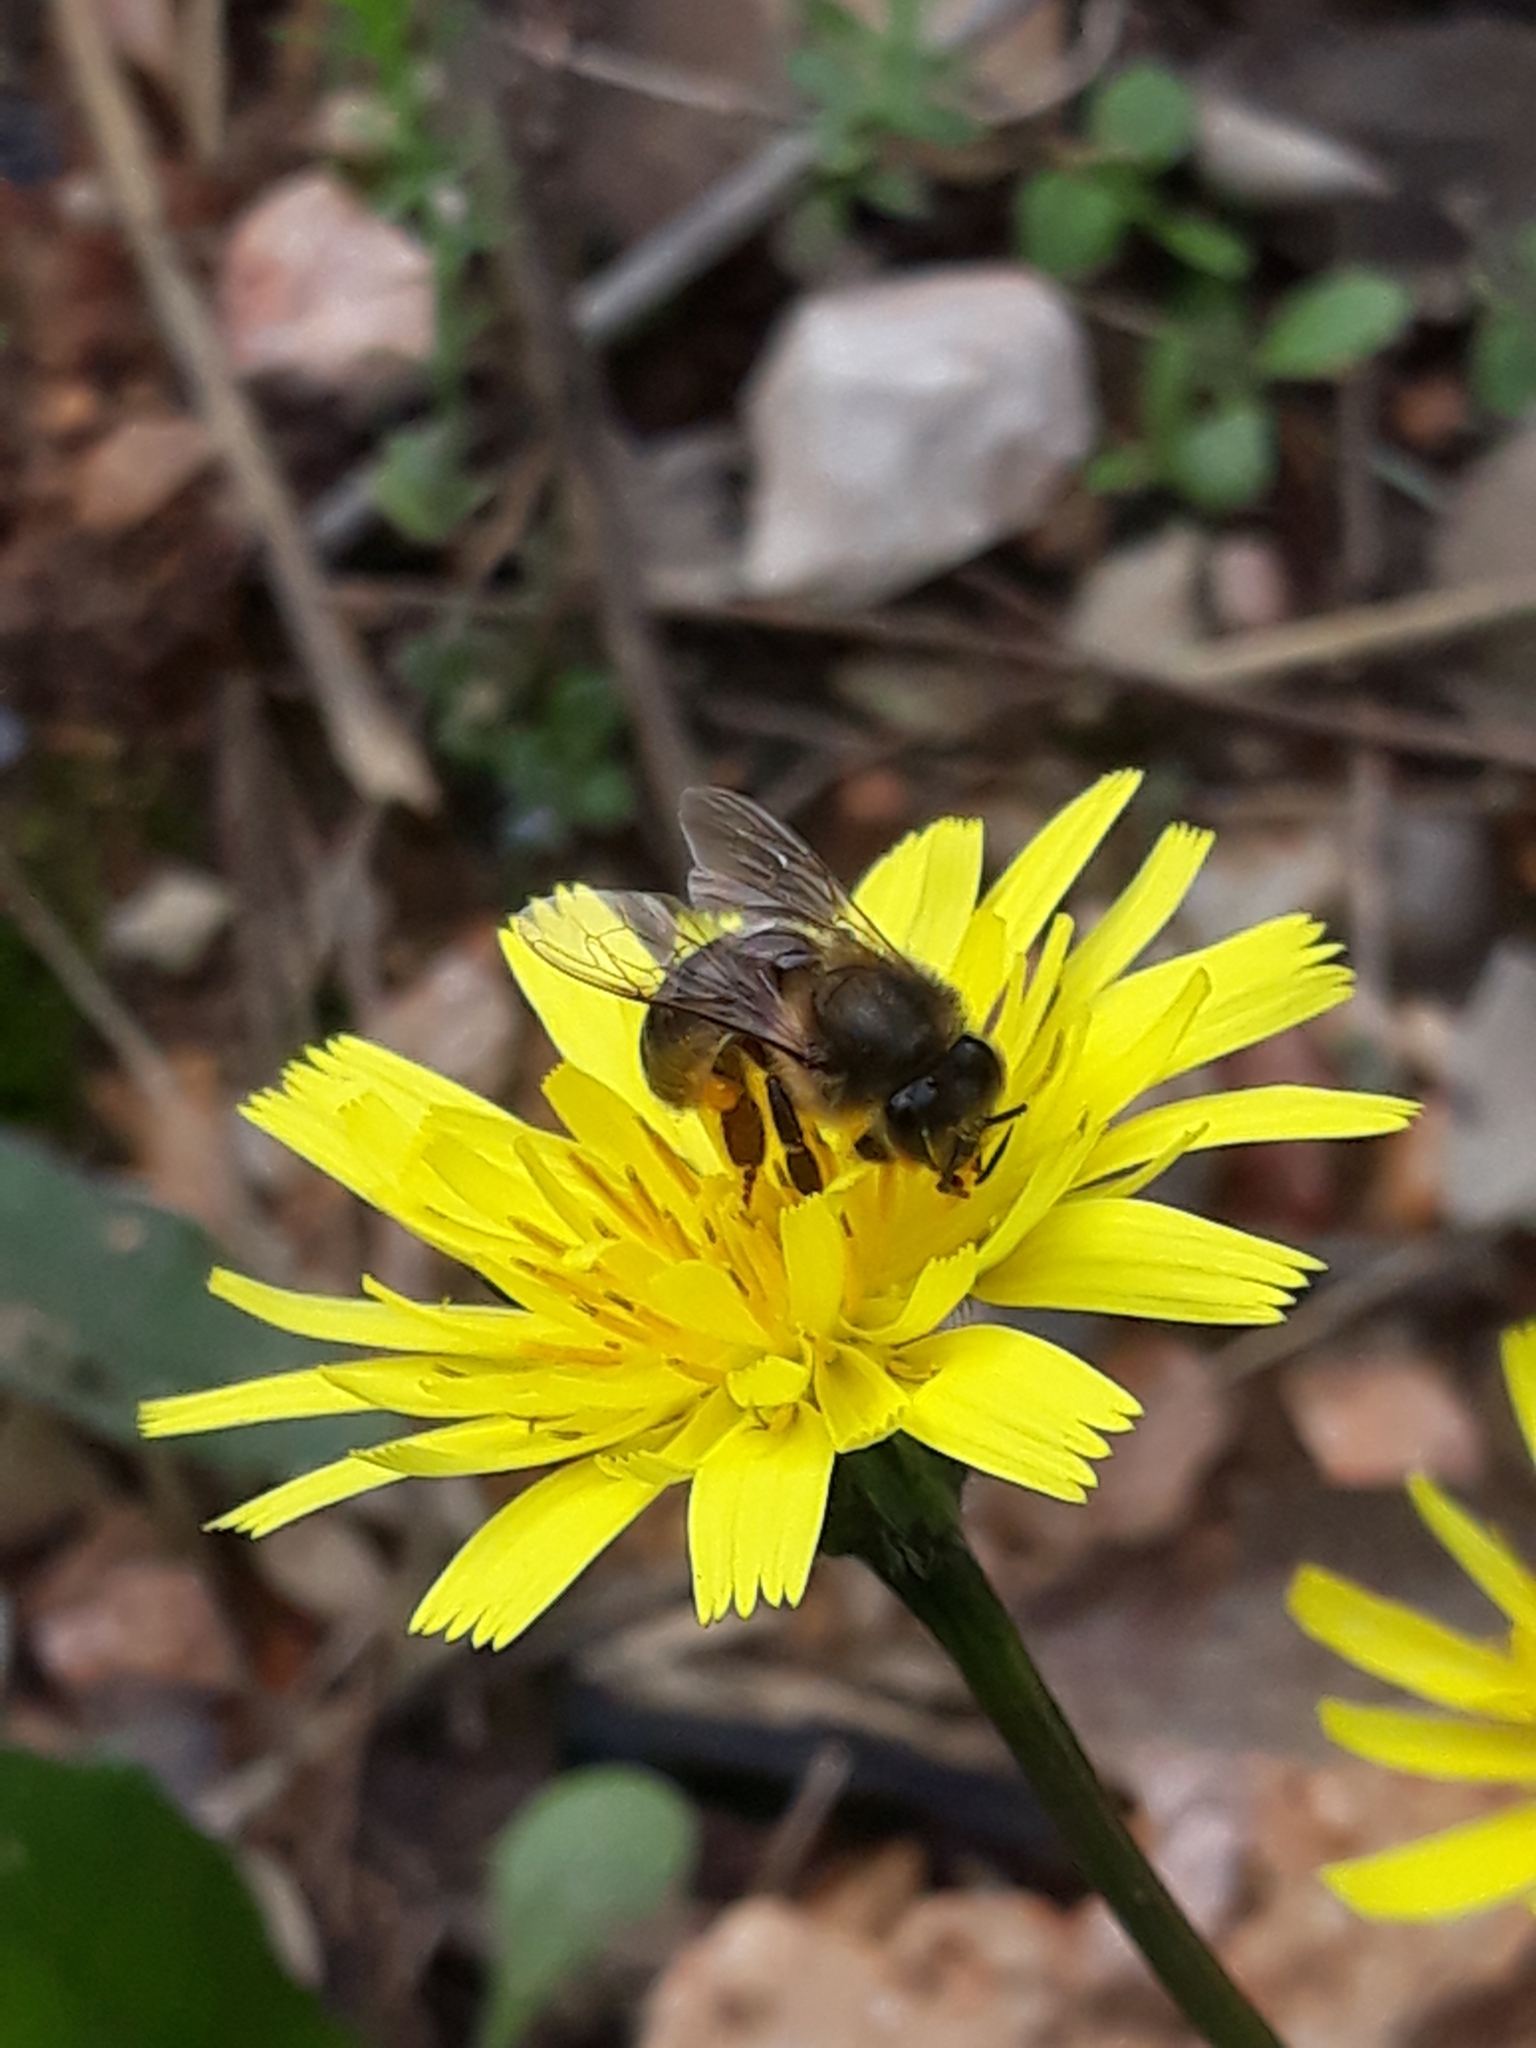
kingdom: Animalia
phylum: Arthropoda
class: Insecta
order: Hymenoptera
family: Apidae
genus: Apis
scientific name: Apis mellifera
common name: Honey bee
